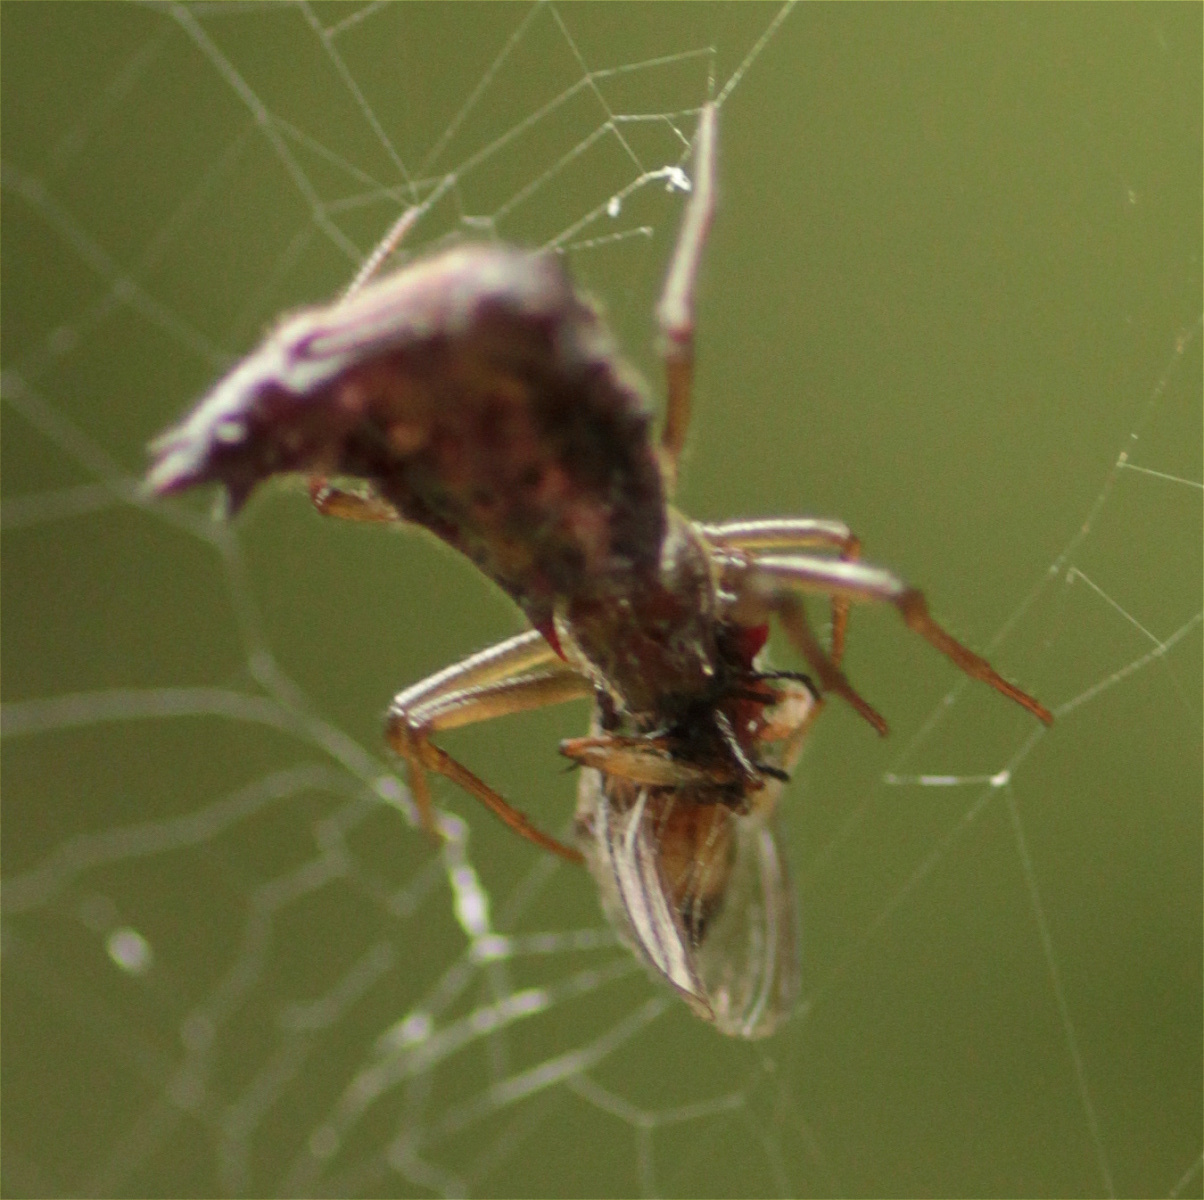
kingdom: Animalia
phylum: Arthropoda
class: Arachnida
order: Araneae
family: Araneidae
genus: Micrathena
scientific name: Micrathena triangularis
